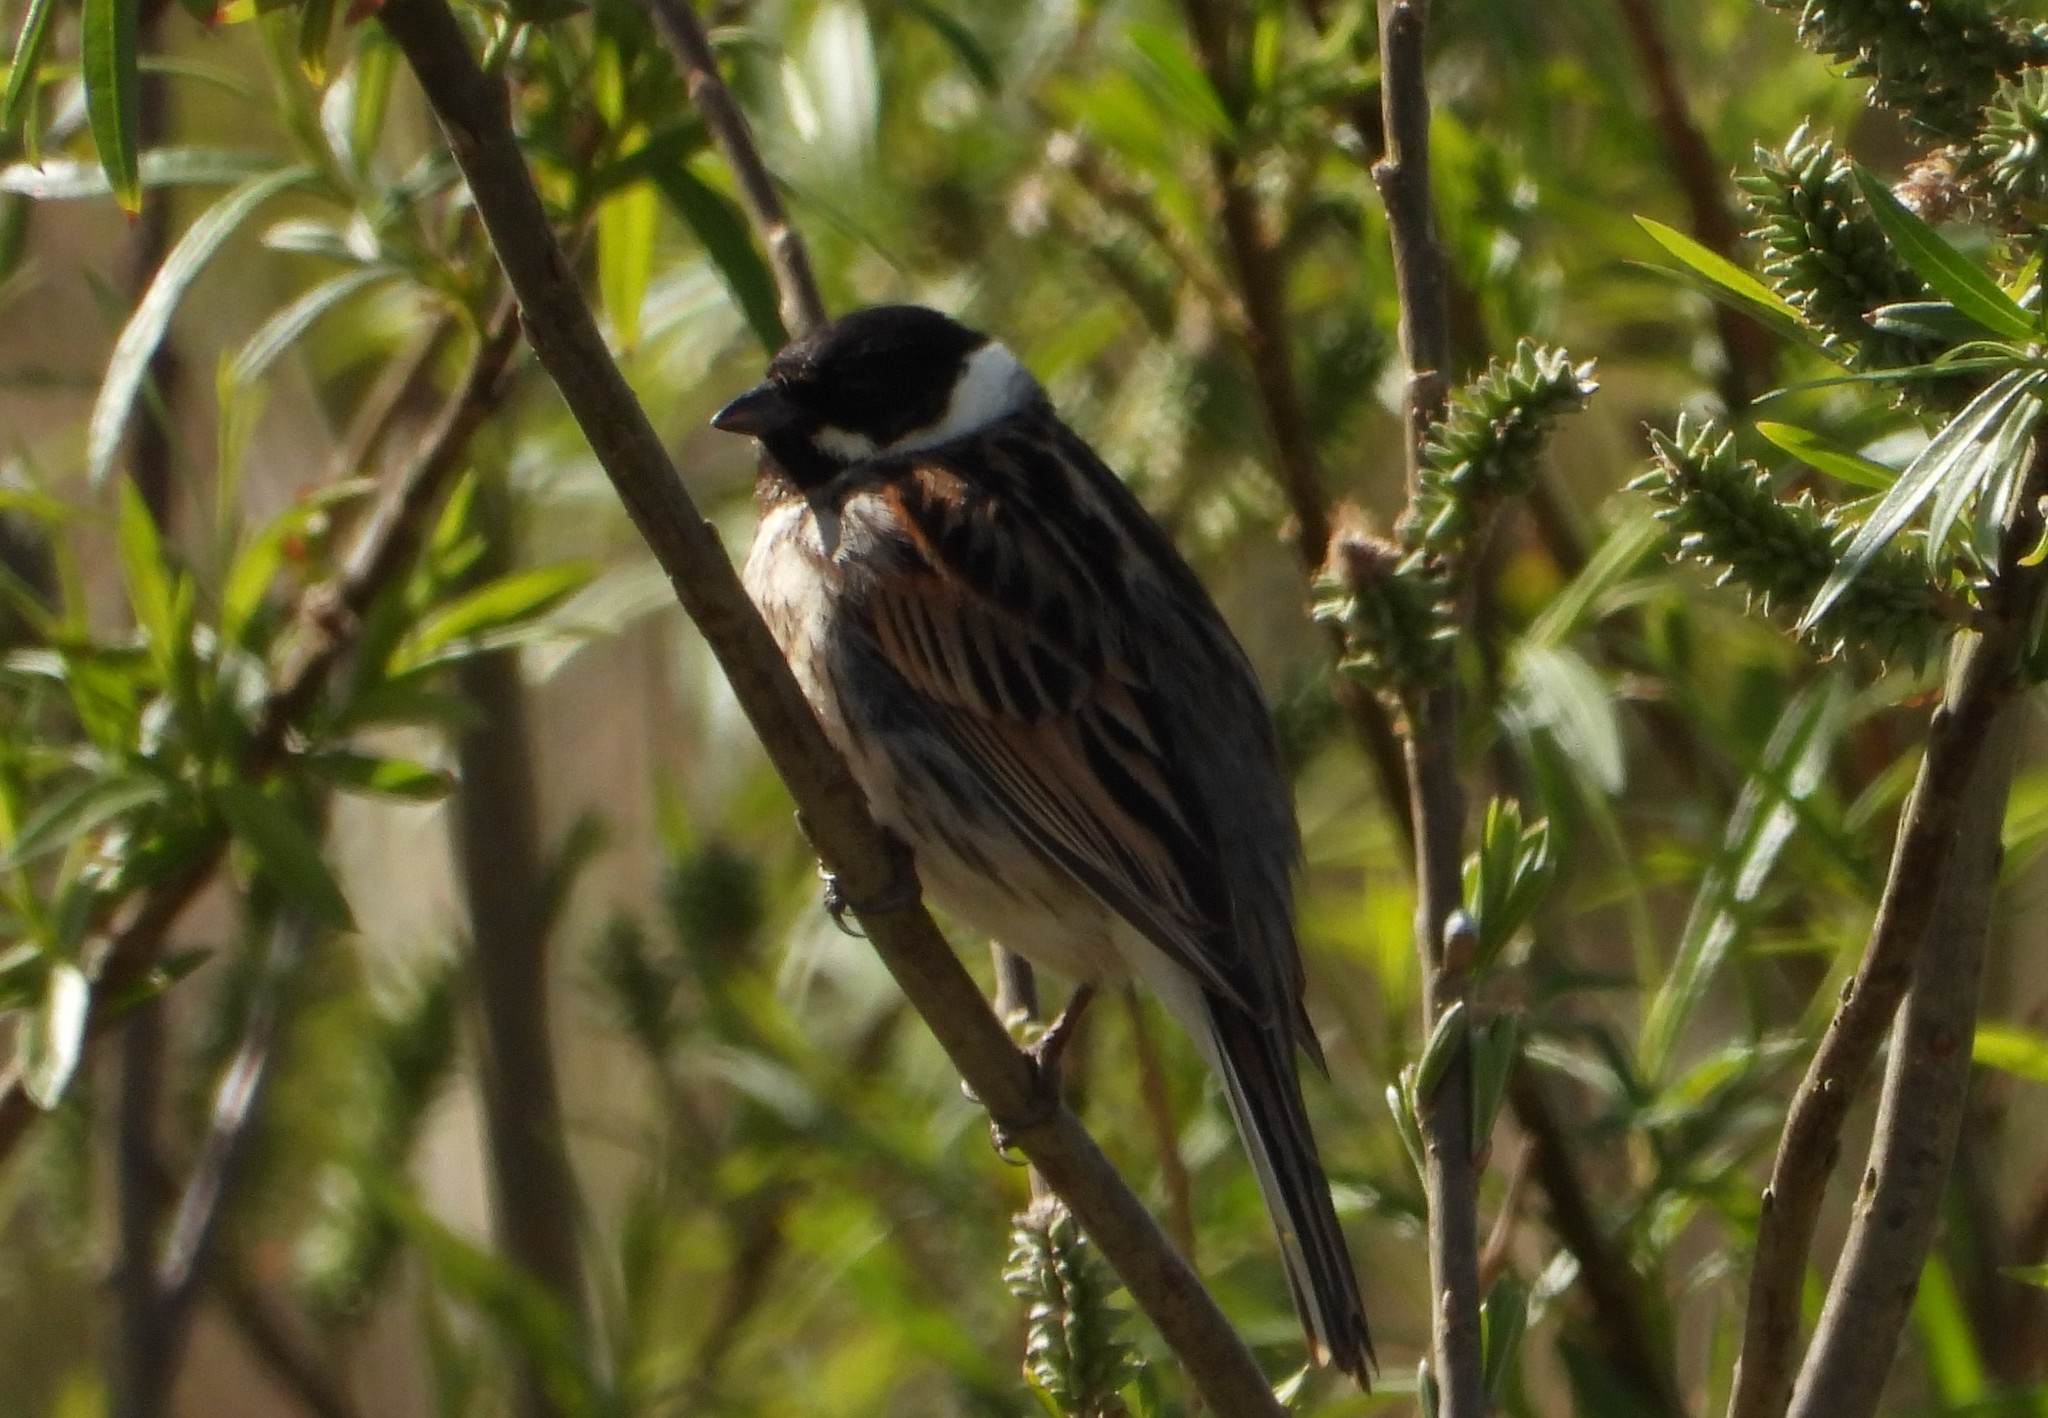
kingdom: Animalia
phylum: Chordata
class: Aves
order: Passeriformes
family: Emberizidae
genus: Emberiza
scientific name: Emberiza schoeniclus
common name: Reed bunting
